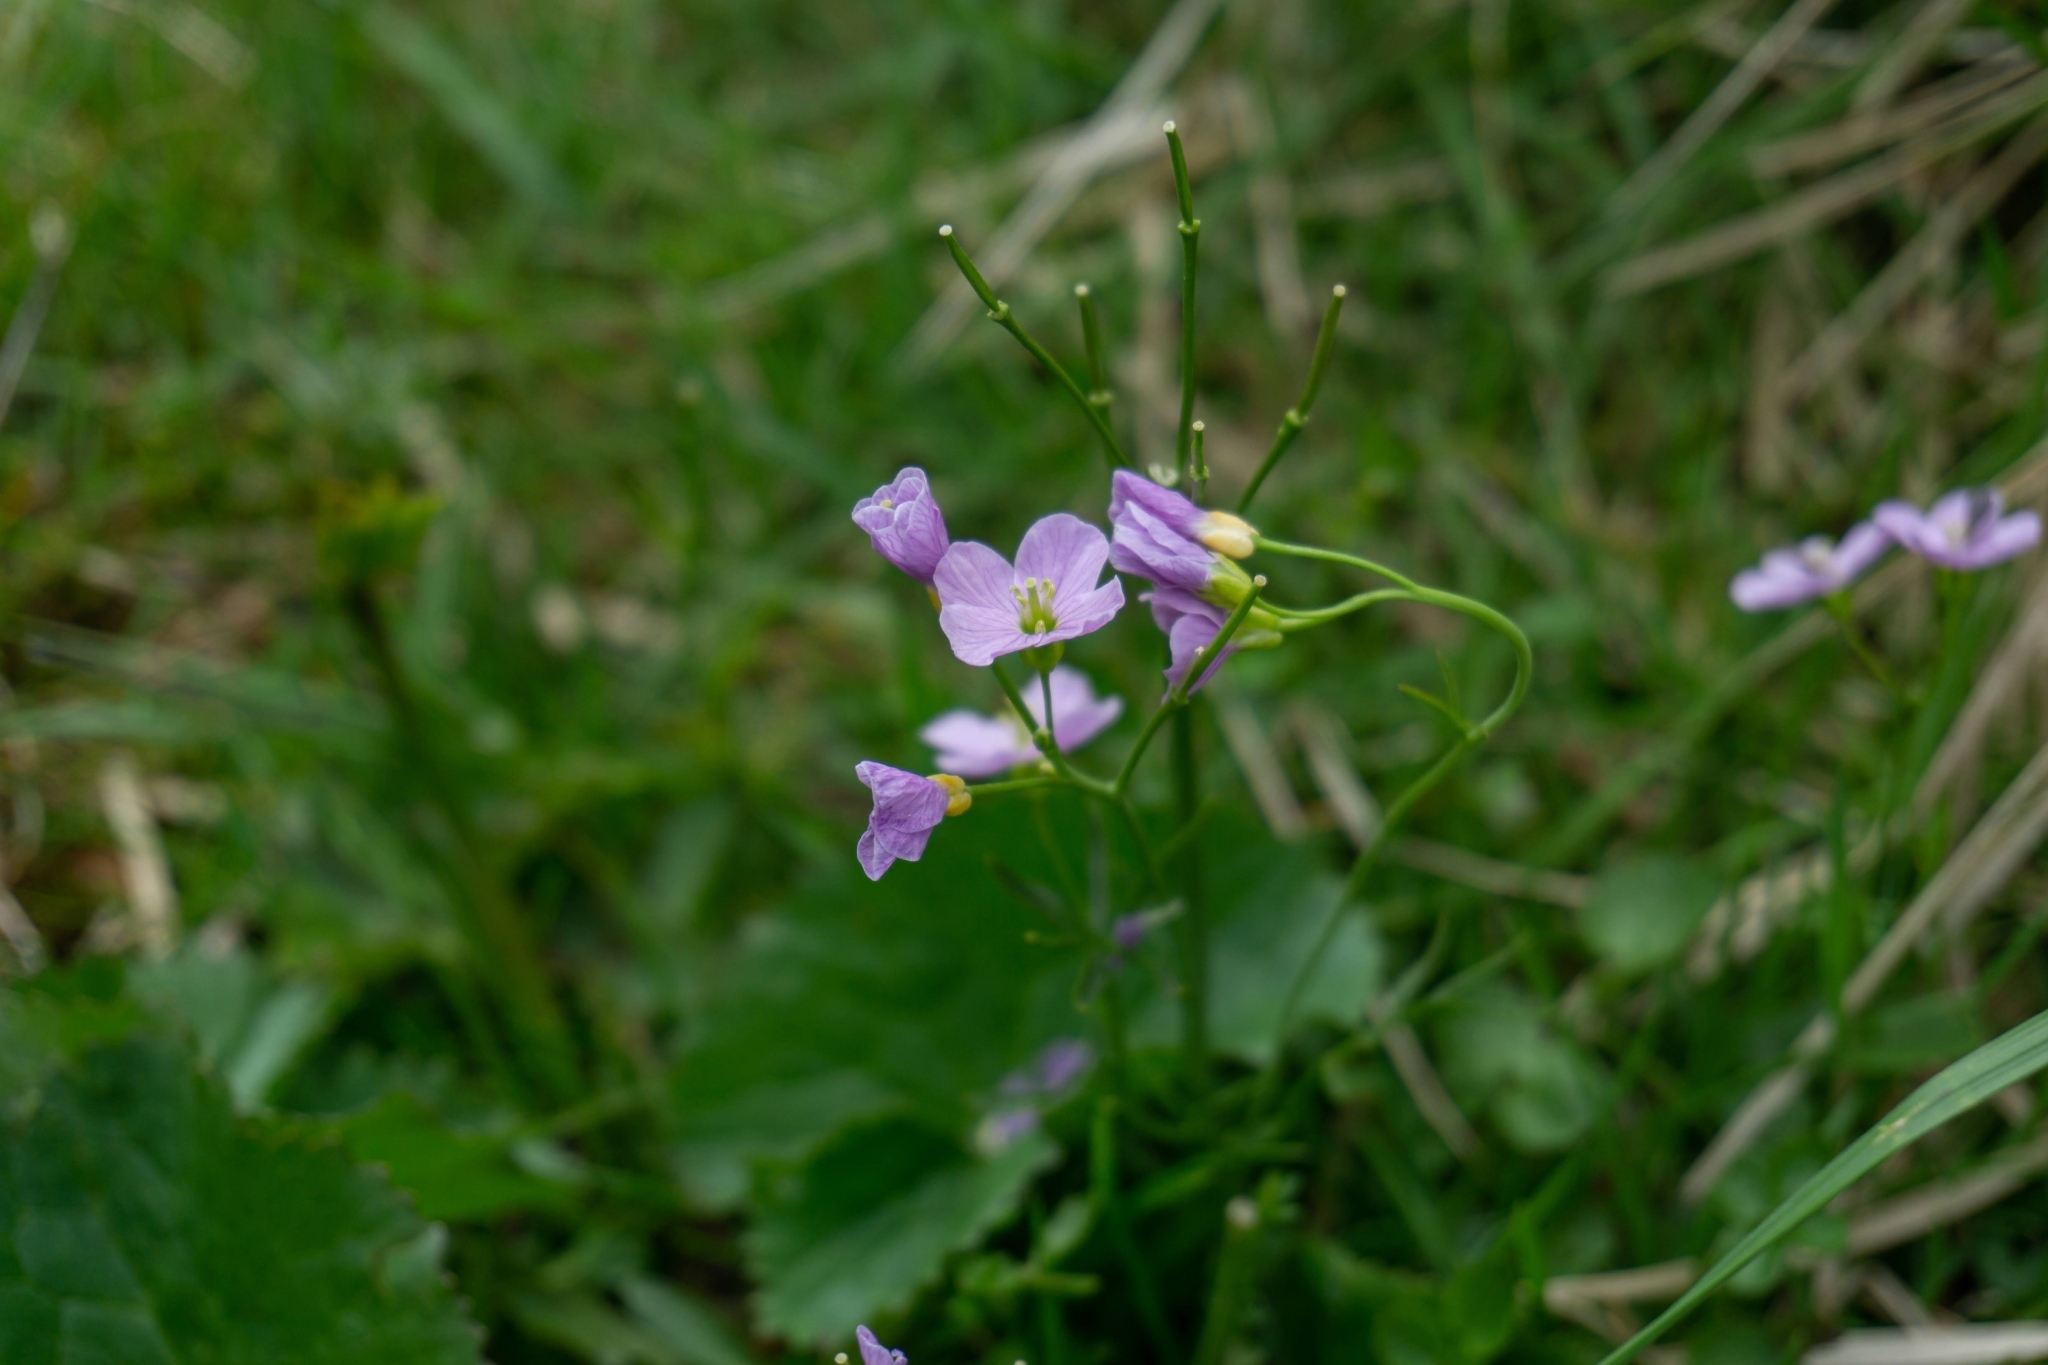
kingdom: Plantae
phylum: Tracheophyta
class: Magnoliopsida
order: Brassicales
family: Brassicaceae
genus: Cardamine
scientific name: Cardamine pratensis
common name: Cuckoo flower
